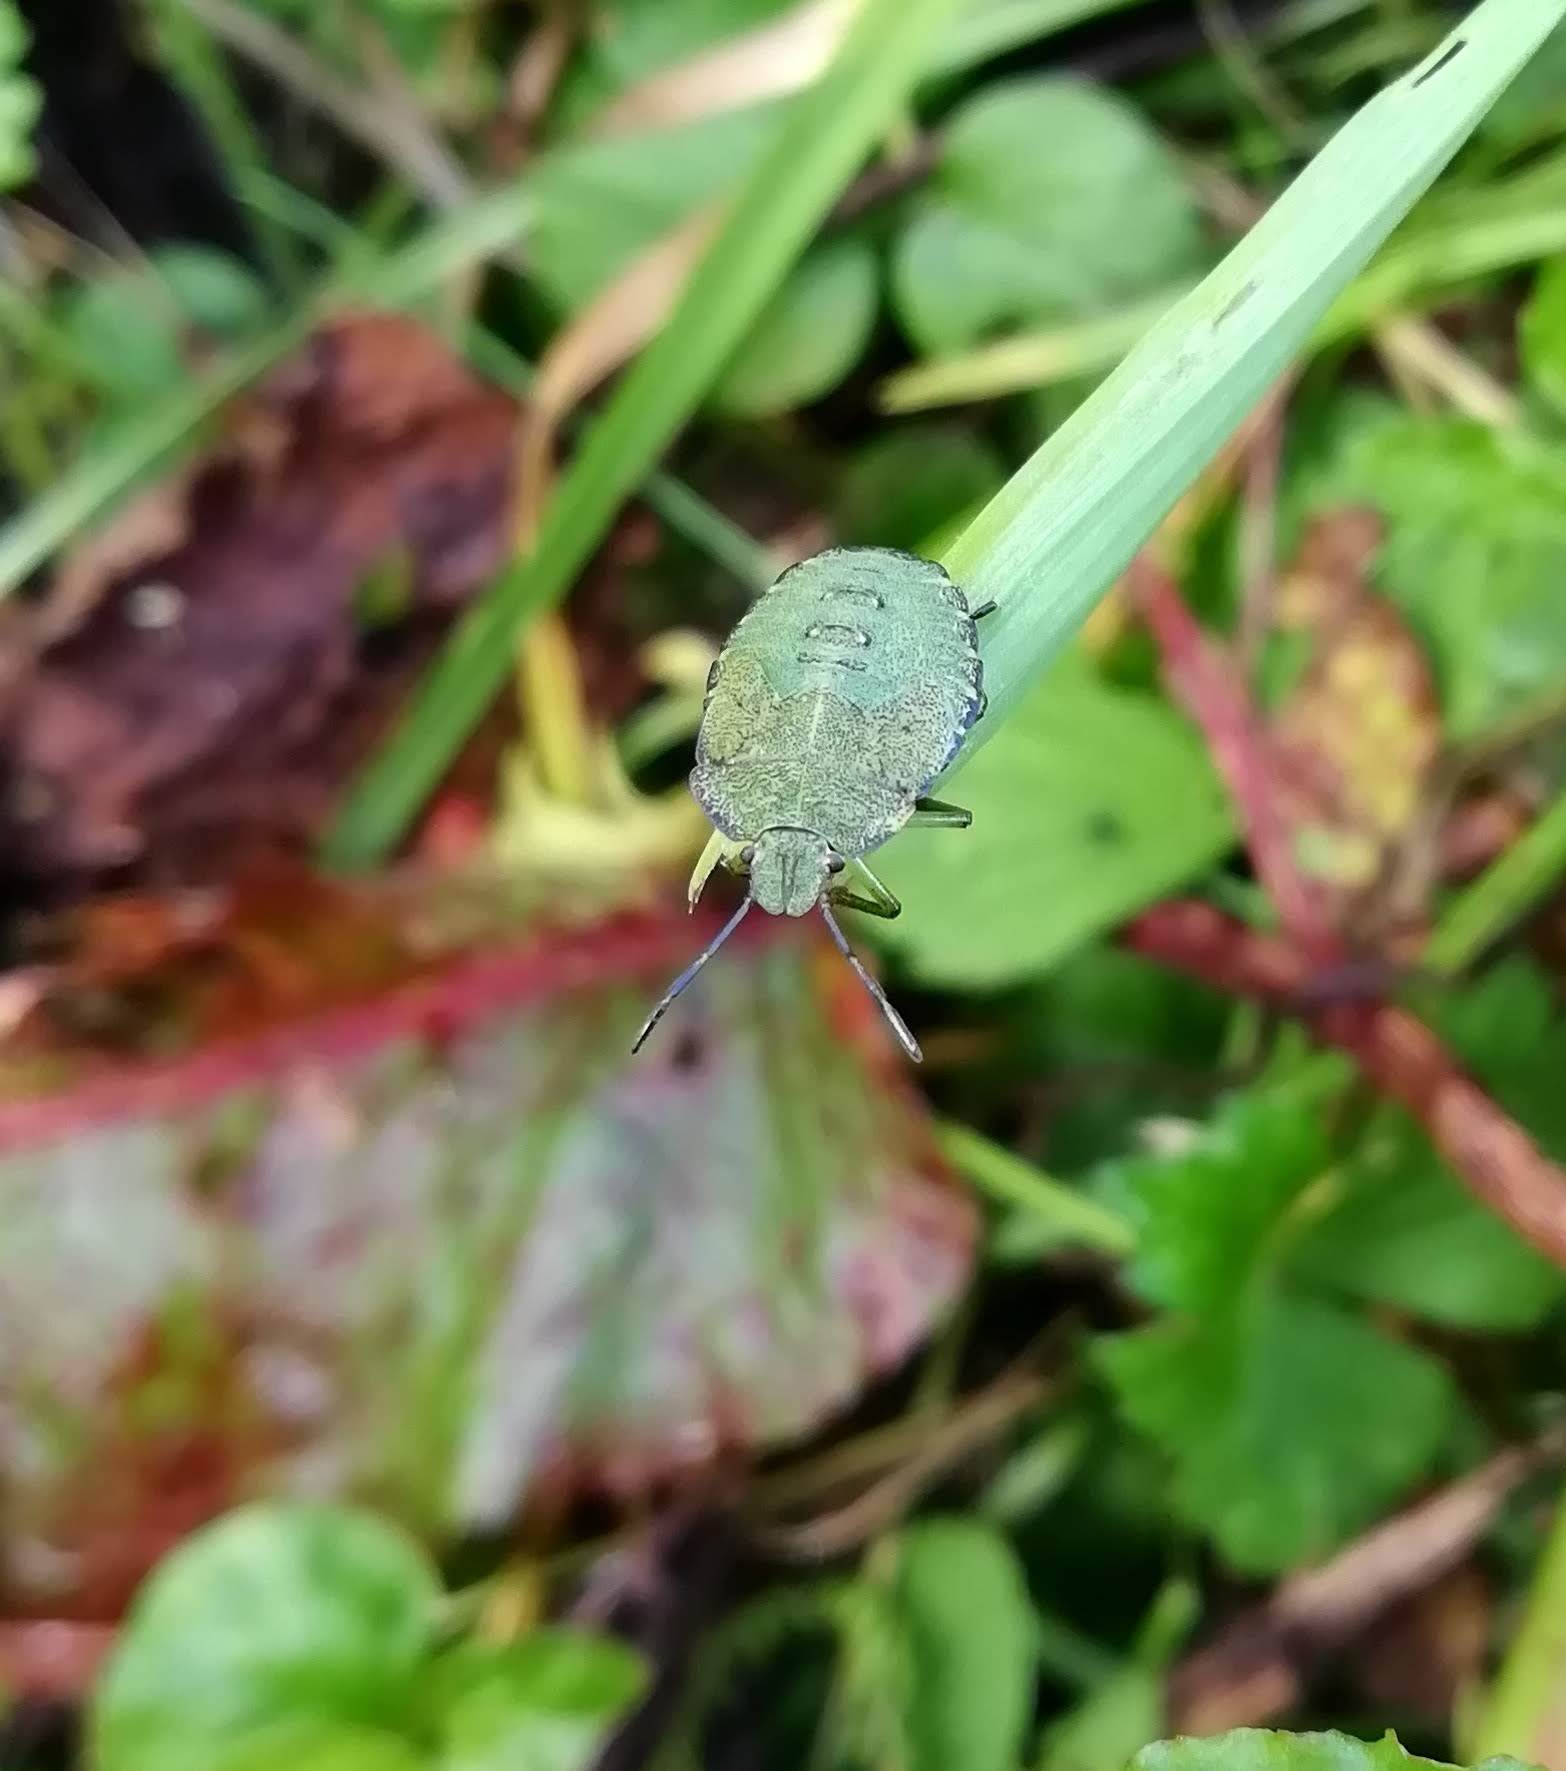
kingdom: Animalia
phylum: Arthropoda
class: Insecta
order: Hemiptera
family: Pentatomidae
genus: Palomena
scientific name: Palomena prasina
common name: Green shieldbug
